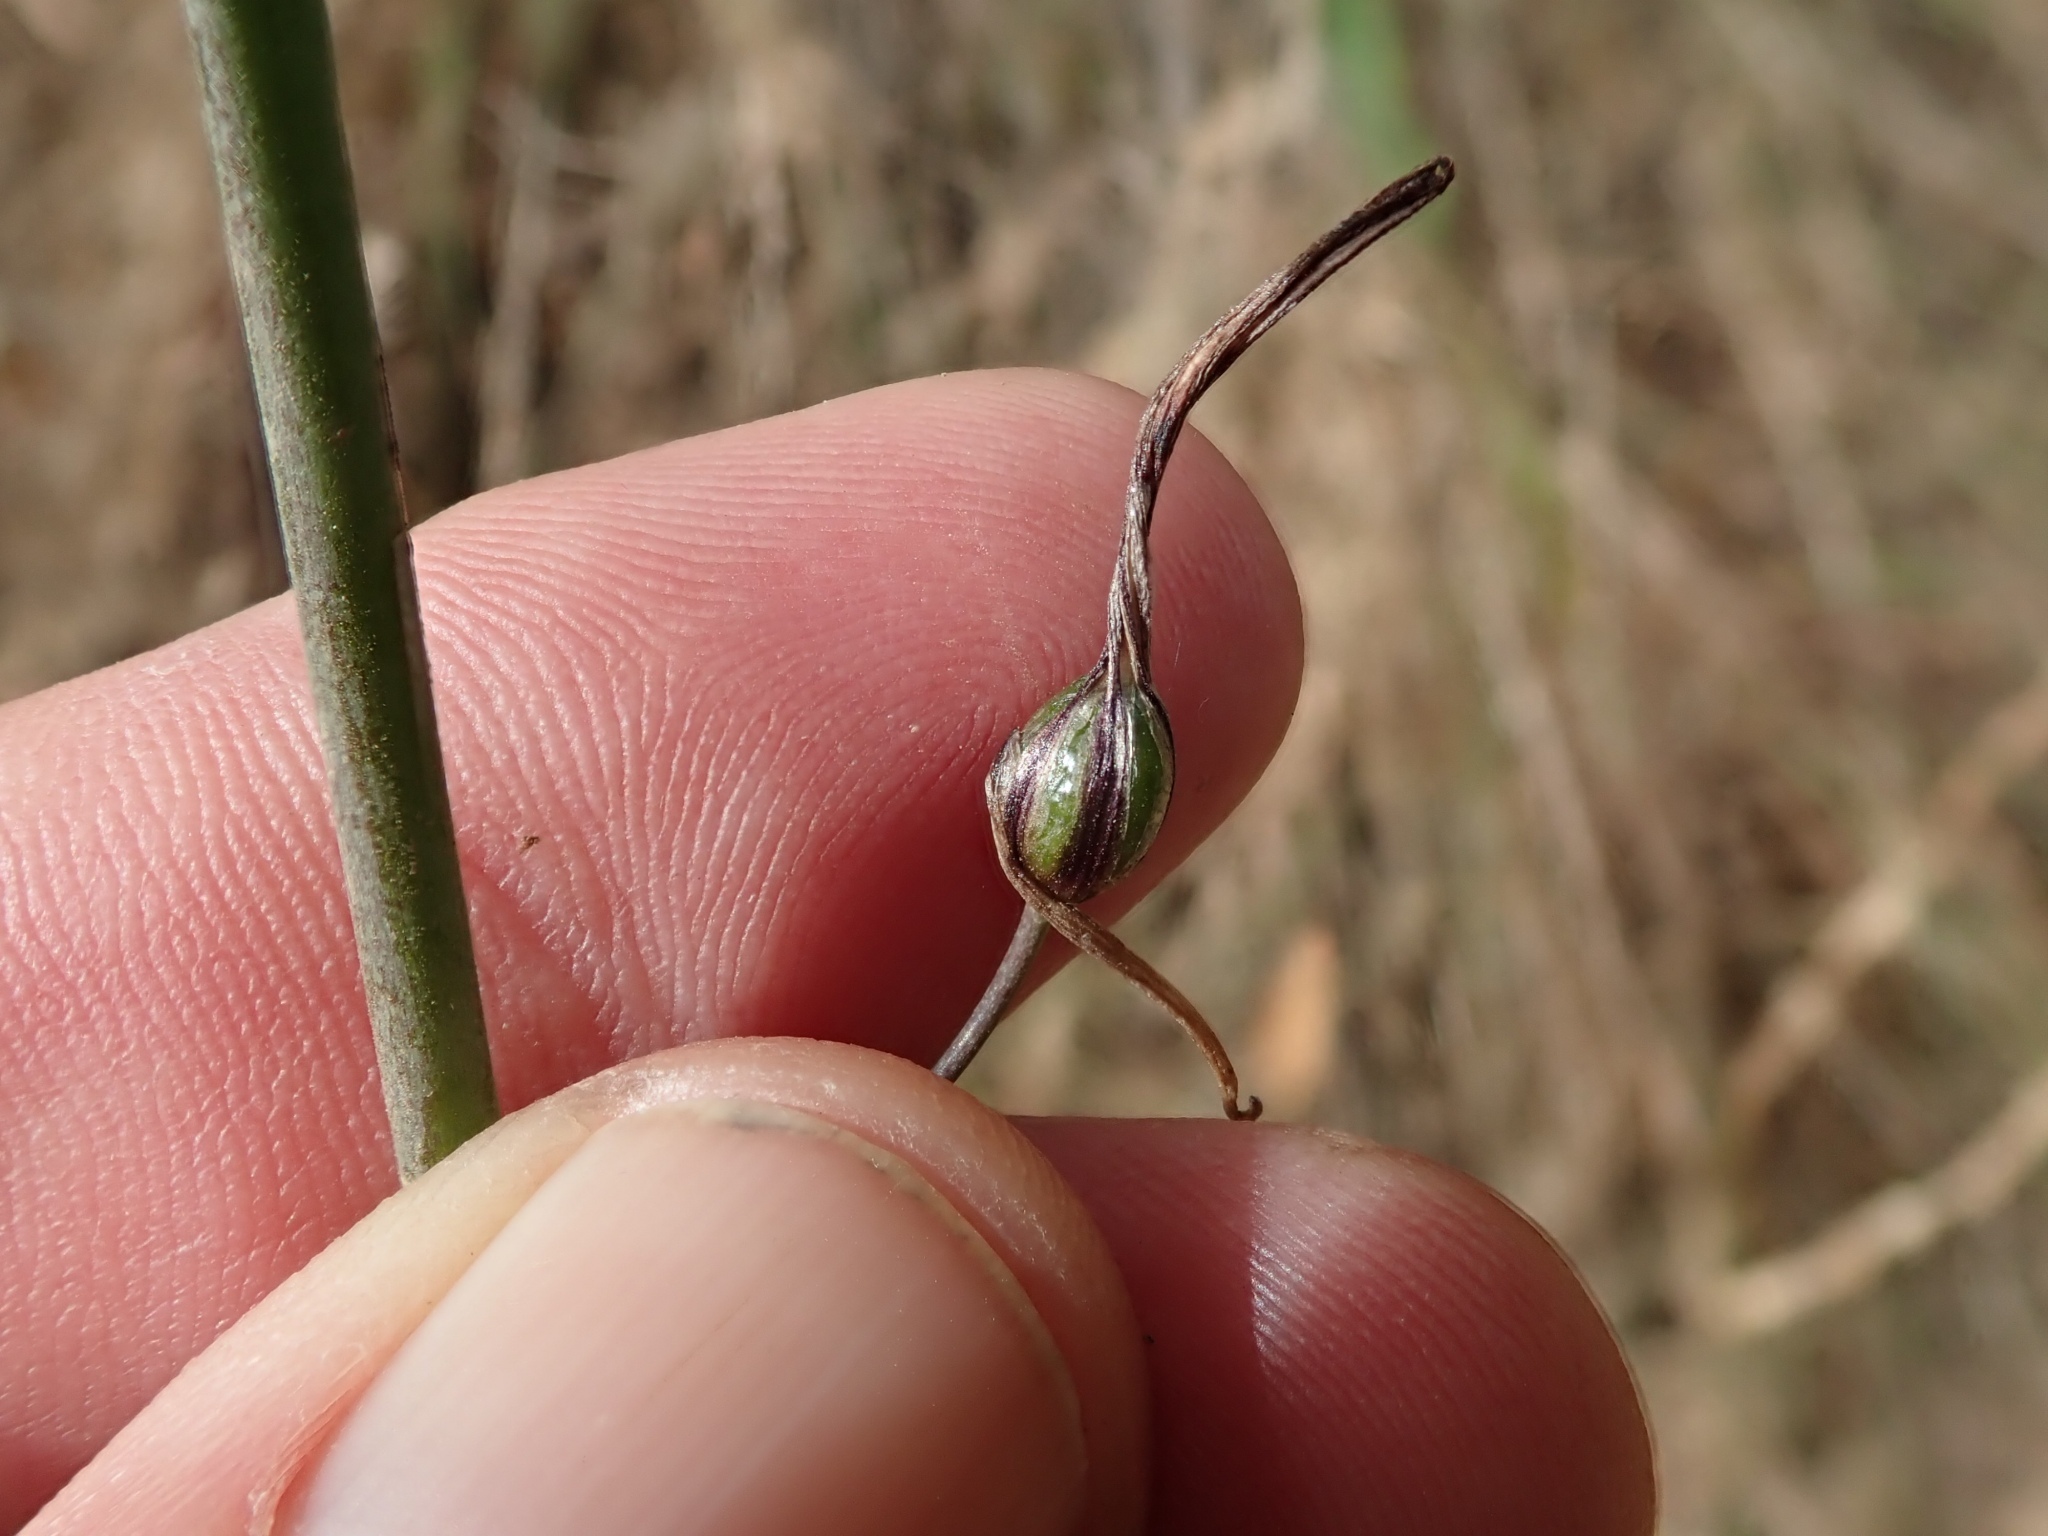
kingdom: Plantae
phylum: Tracheophyta
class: Liliopsida
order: Asparagales
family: Asparagaceae
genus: Chlorogalum
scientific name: Chlorogalum pomeridianum
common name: Amole
